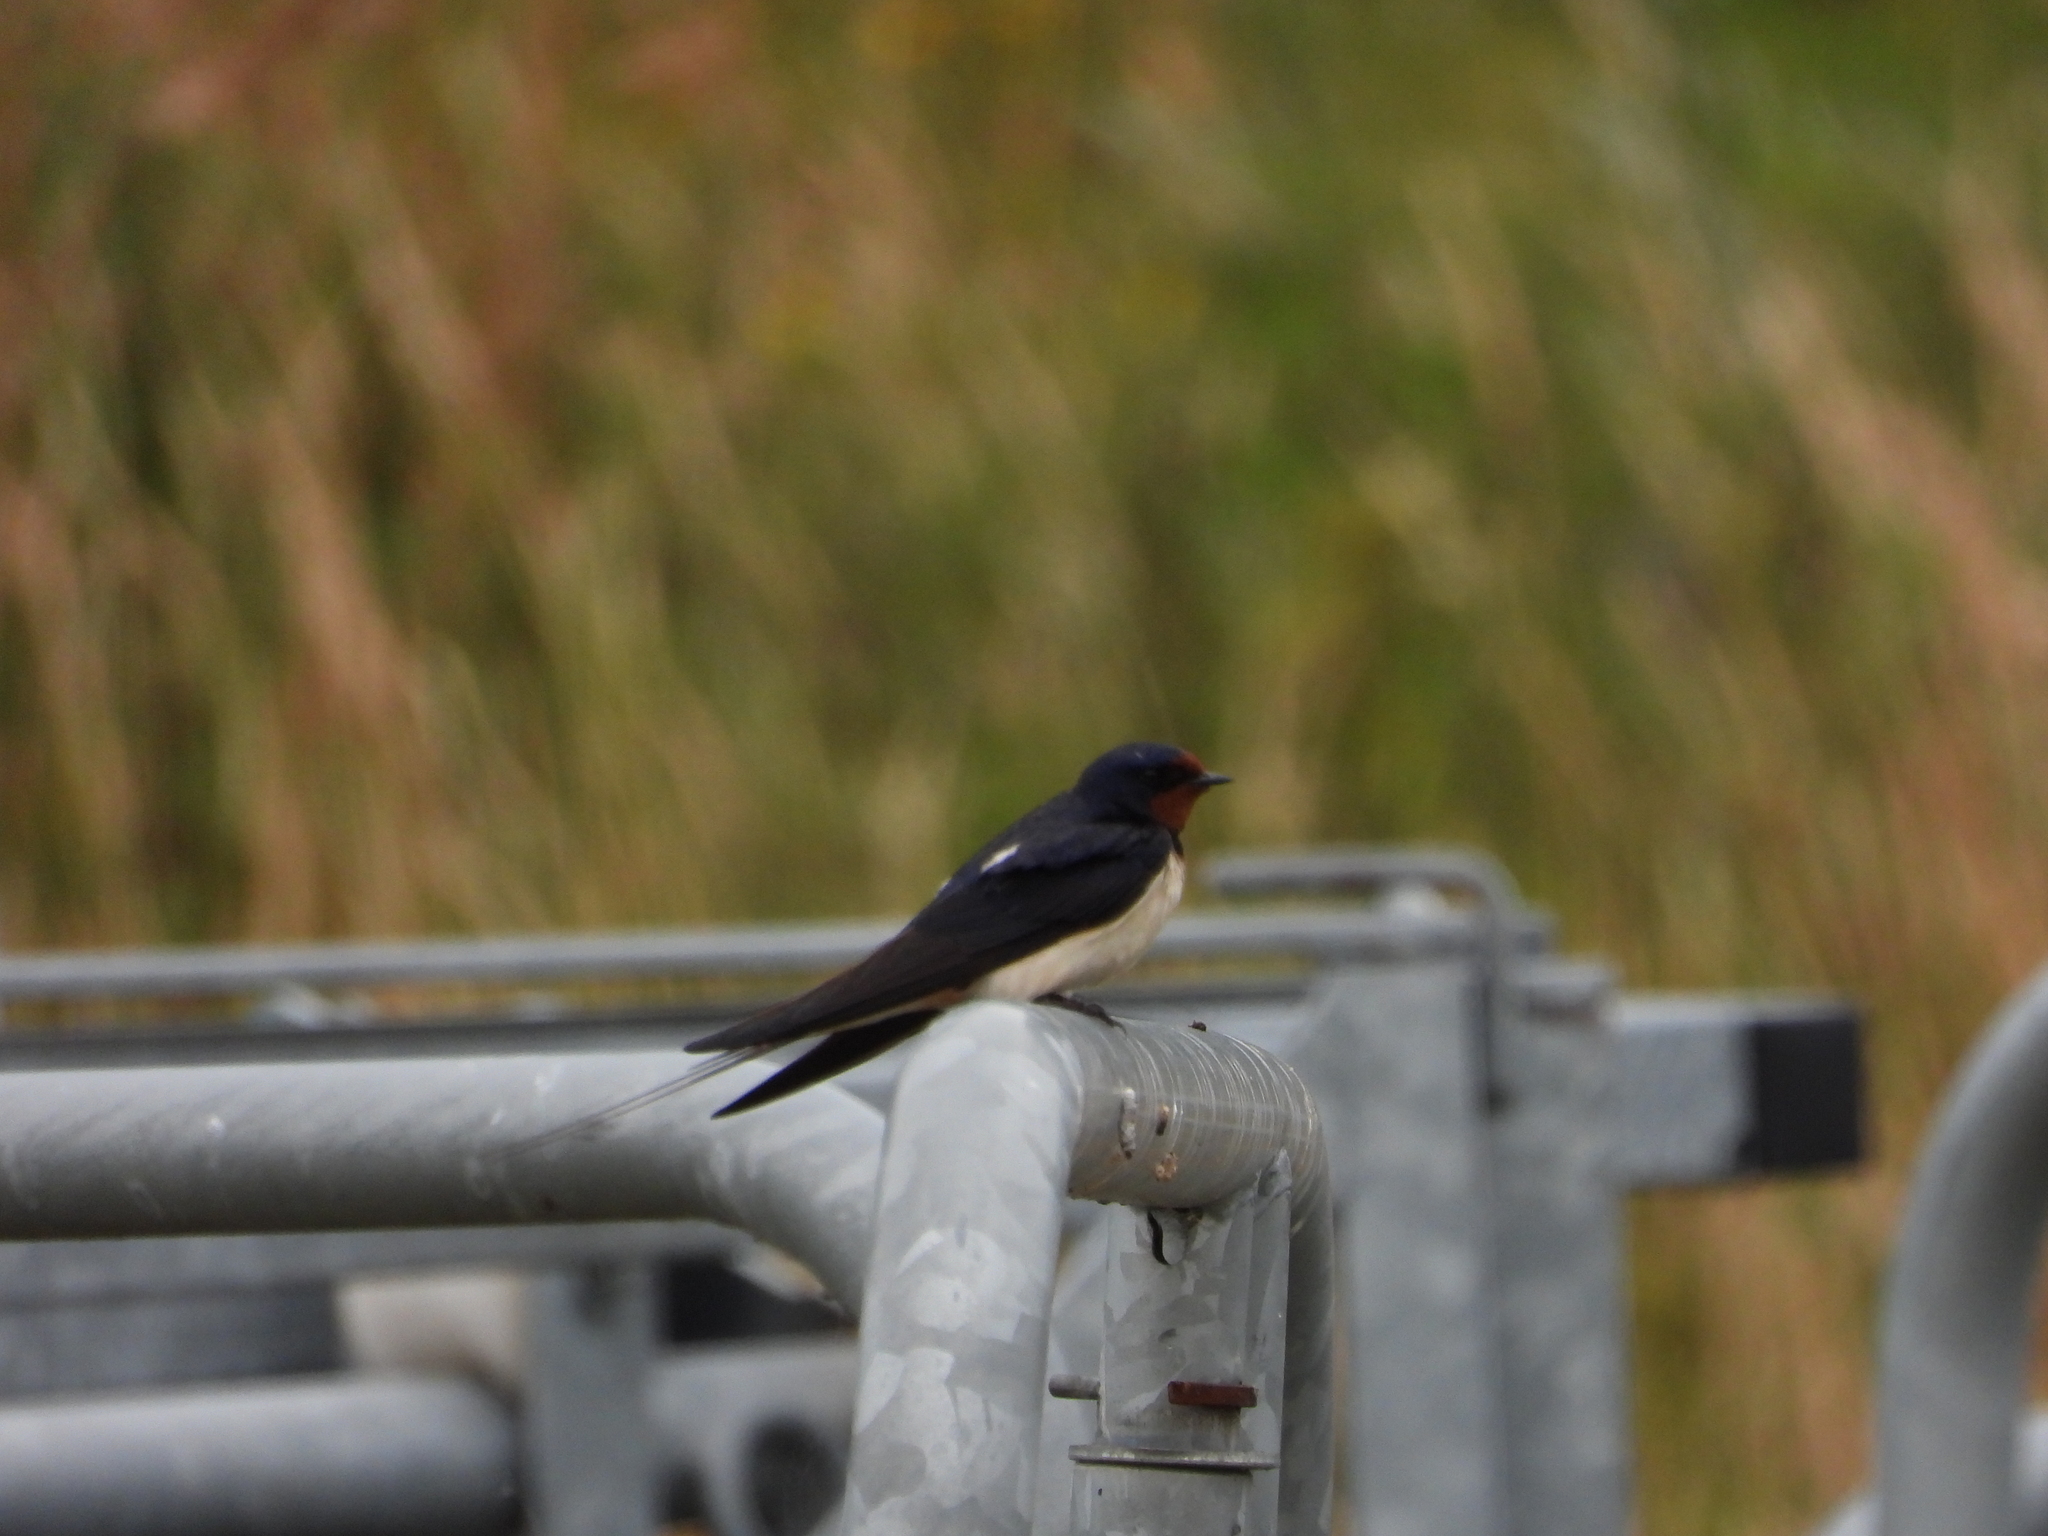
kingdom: Animalia
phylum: Chordata
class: Aves
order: Passeriformes
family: Hirundinidae
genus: Hirundo
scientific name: Hirundo rustica
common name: Barn swallow
